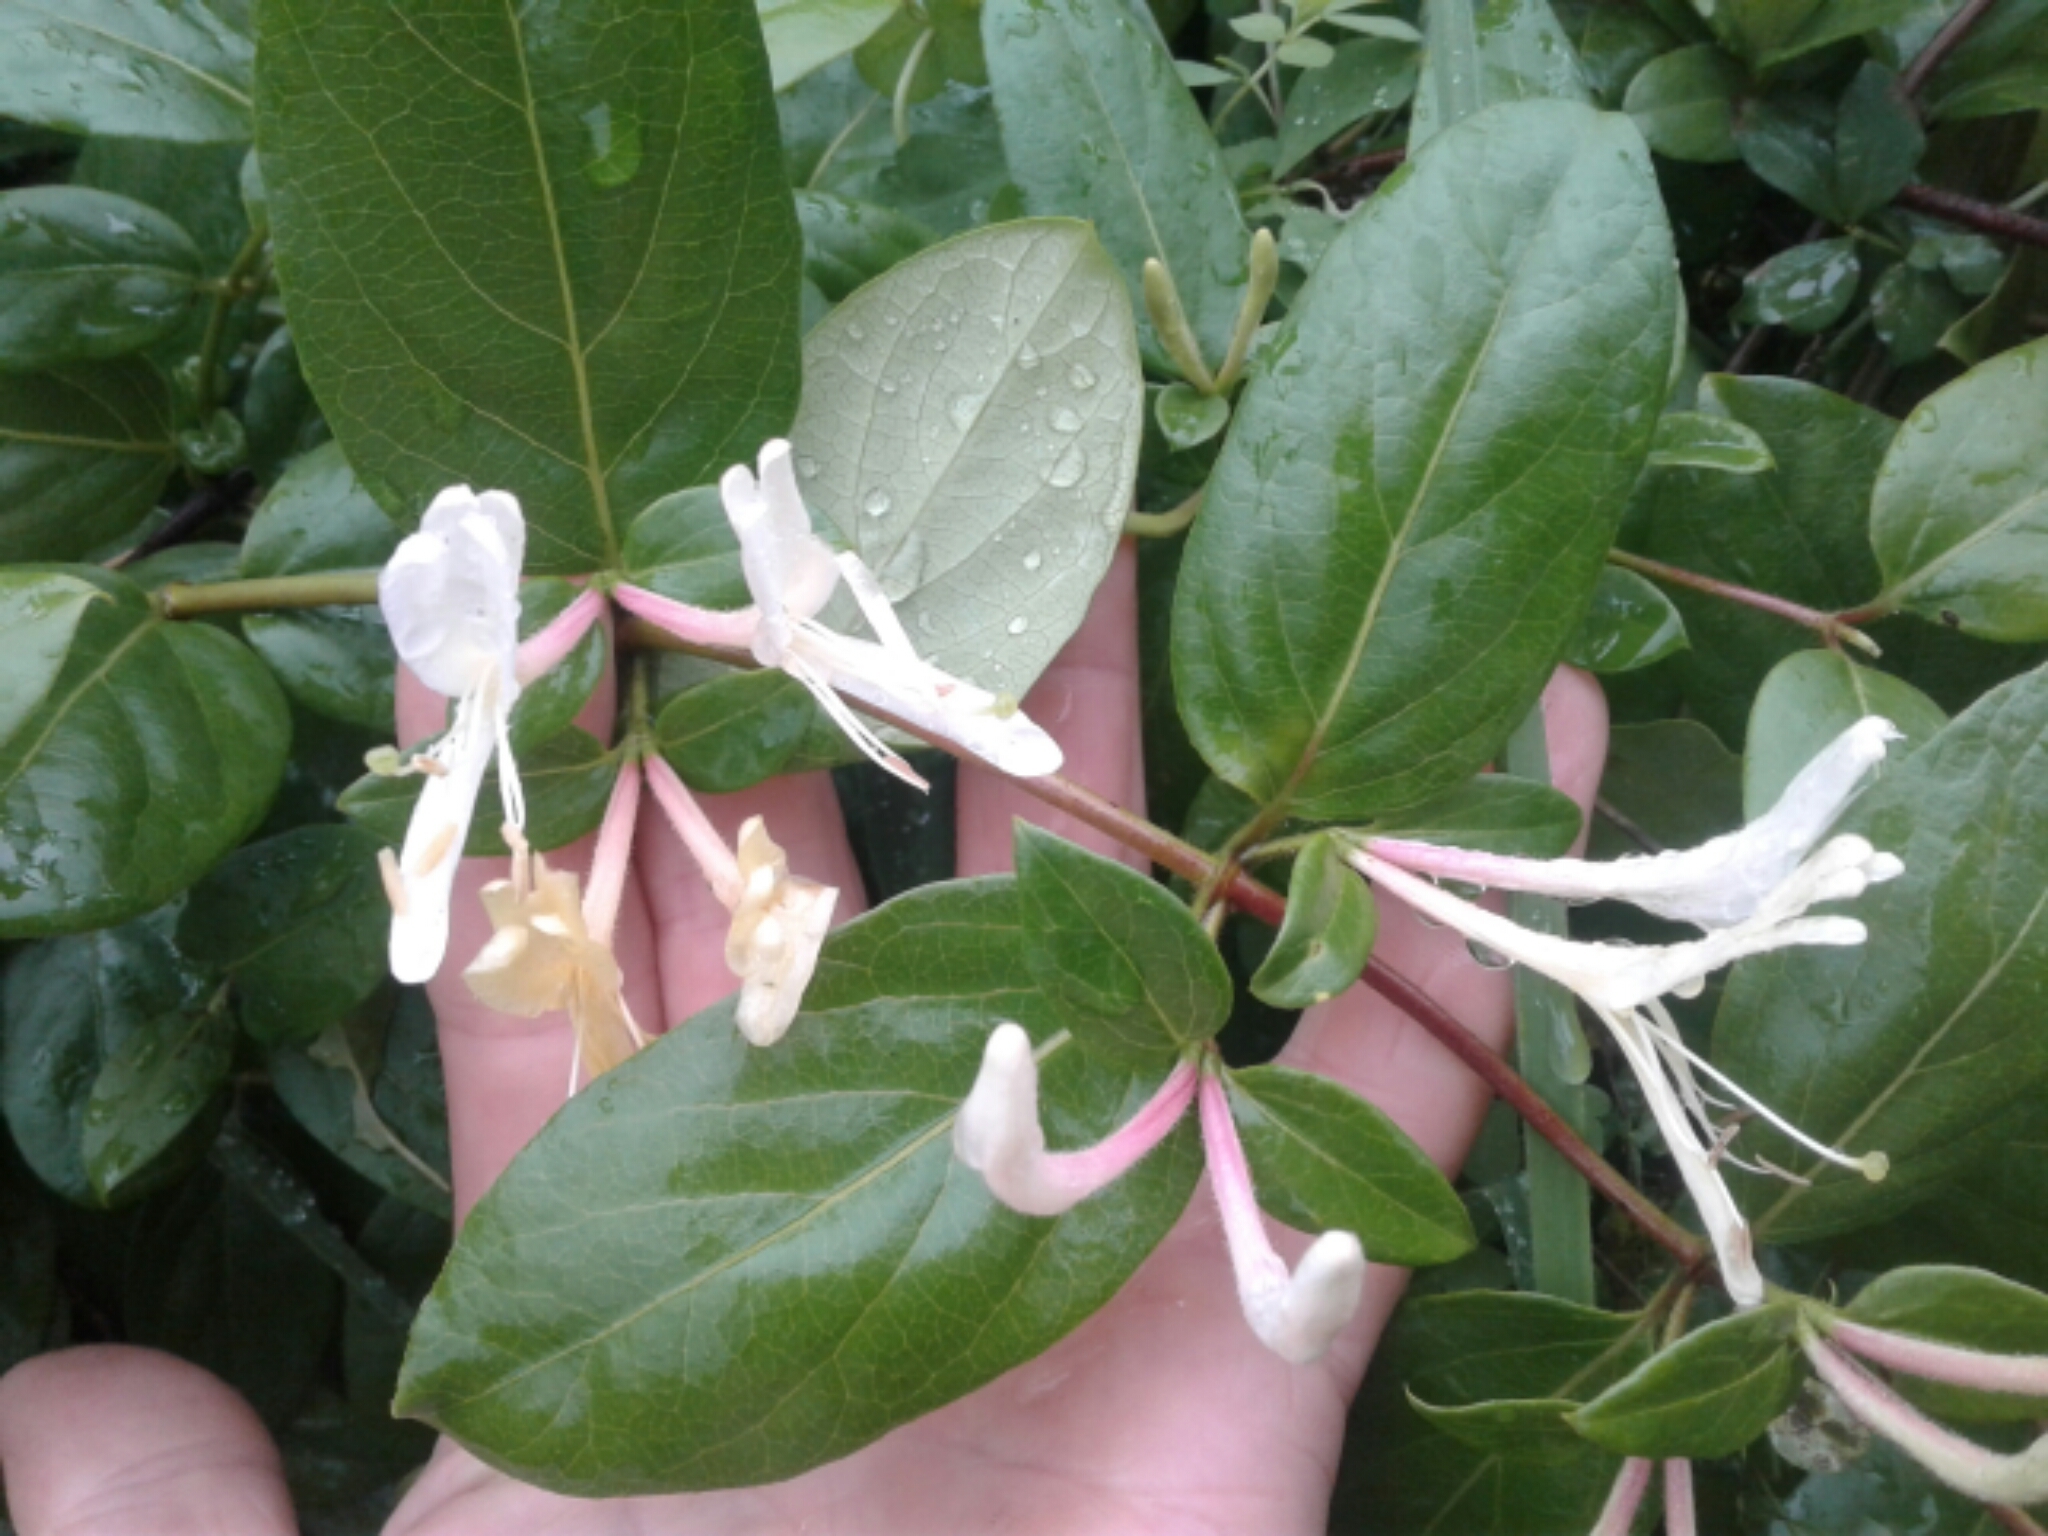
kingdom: Plantae
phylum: Tracheophyta
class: Magnoliopsida
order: Dipsacales
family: Caprifoliaceae
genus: Lonicera
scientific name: Lonicera japonica
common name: Japanese honeysuckle
